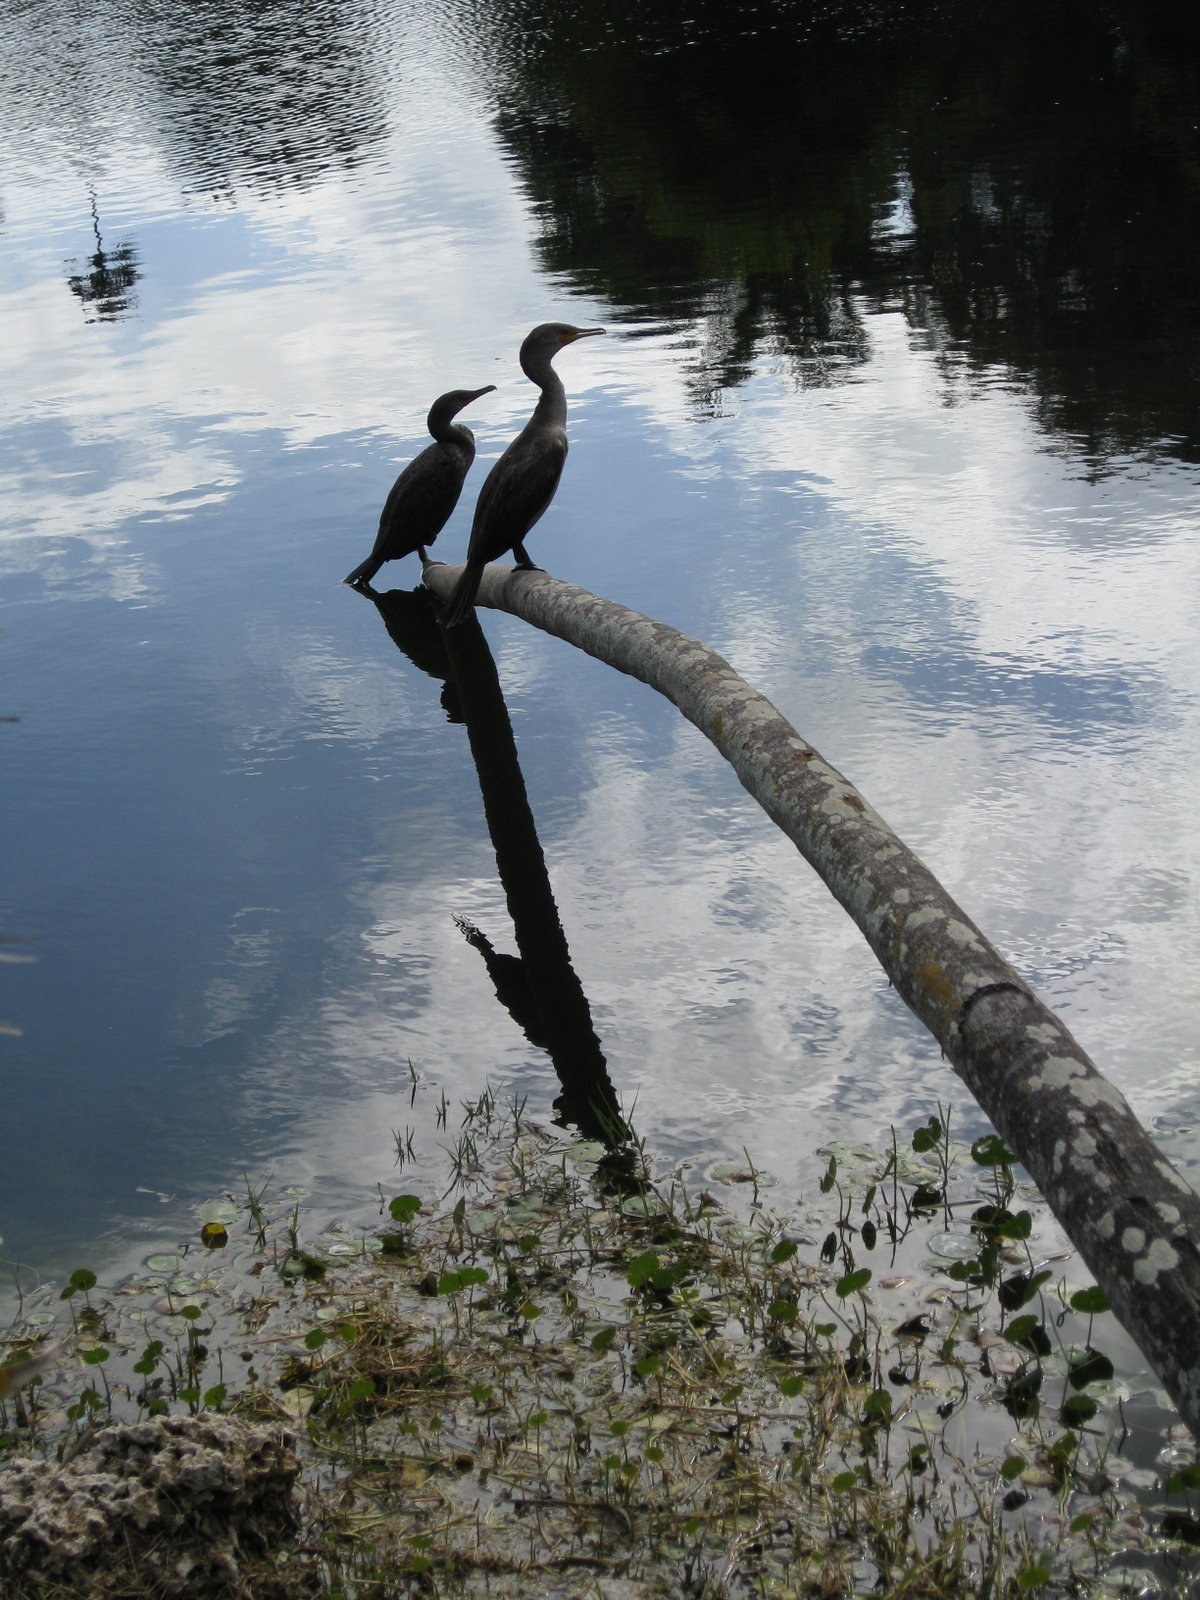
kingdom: Animalia
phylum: Chordata
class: Aves
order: Suliformes
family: Phalacrocoracidae
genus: Phalacrocorax
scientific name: Phalacrocorax auritus
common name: Double-crested cormorant
